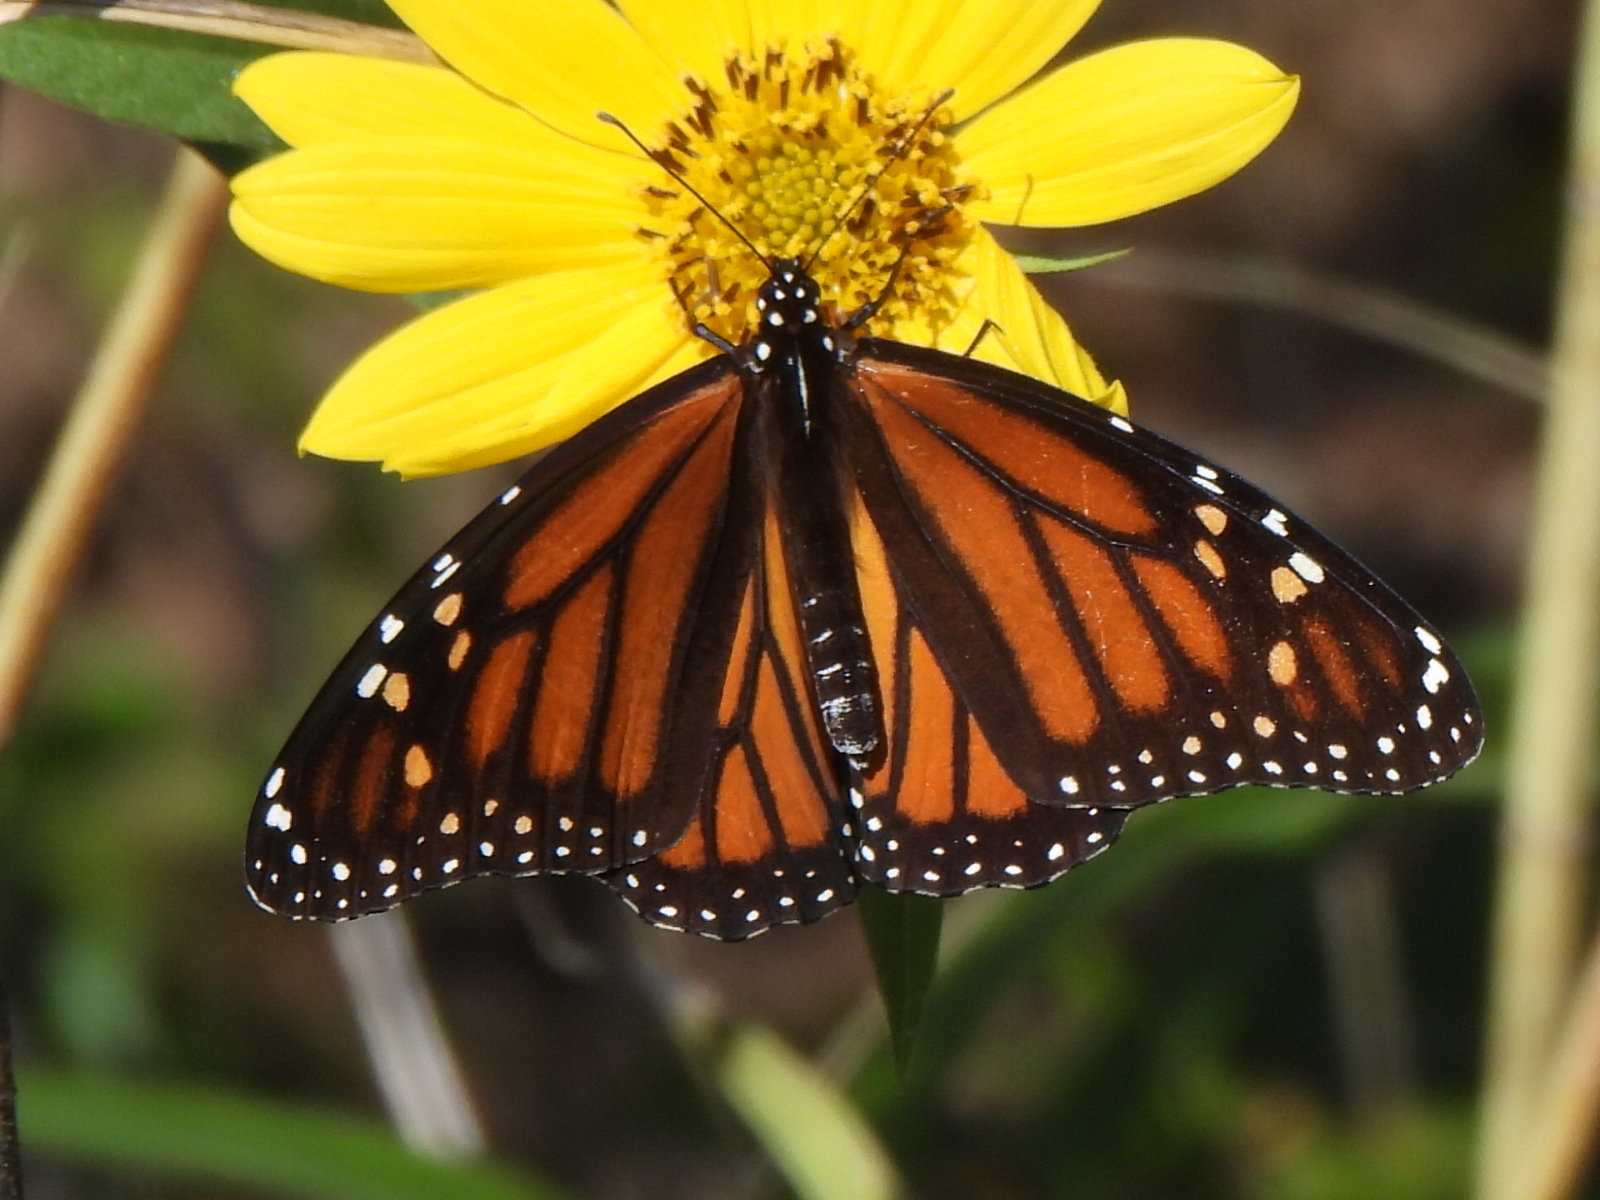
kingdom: Animalia
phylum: Arthropoda
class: Insecta
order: Lepidoptera
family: Nymphalidae
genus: Danaus
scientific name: Danaus plexippus
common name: Monarch
